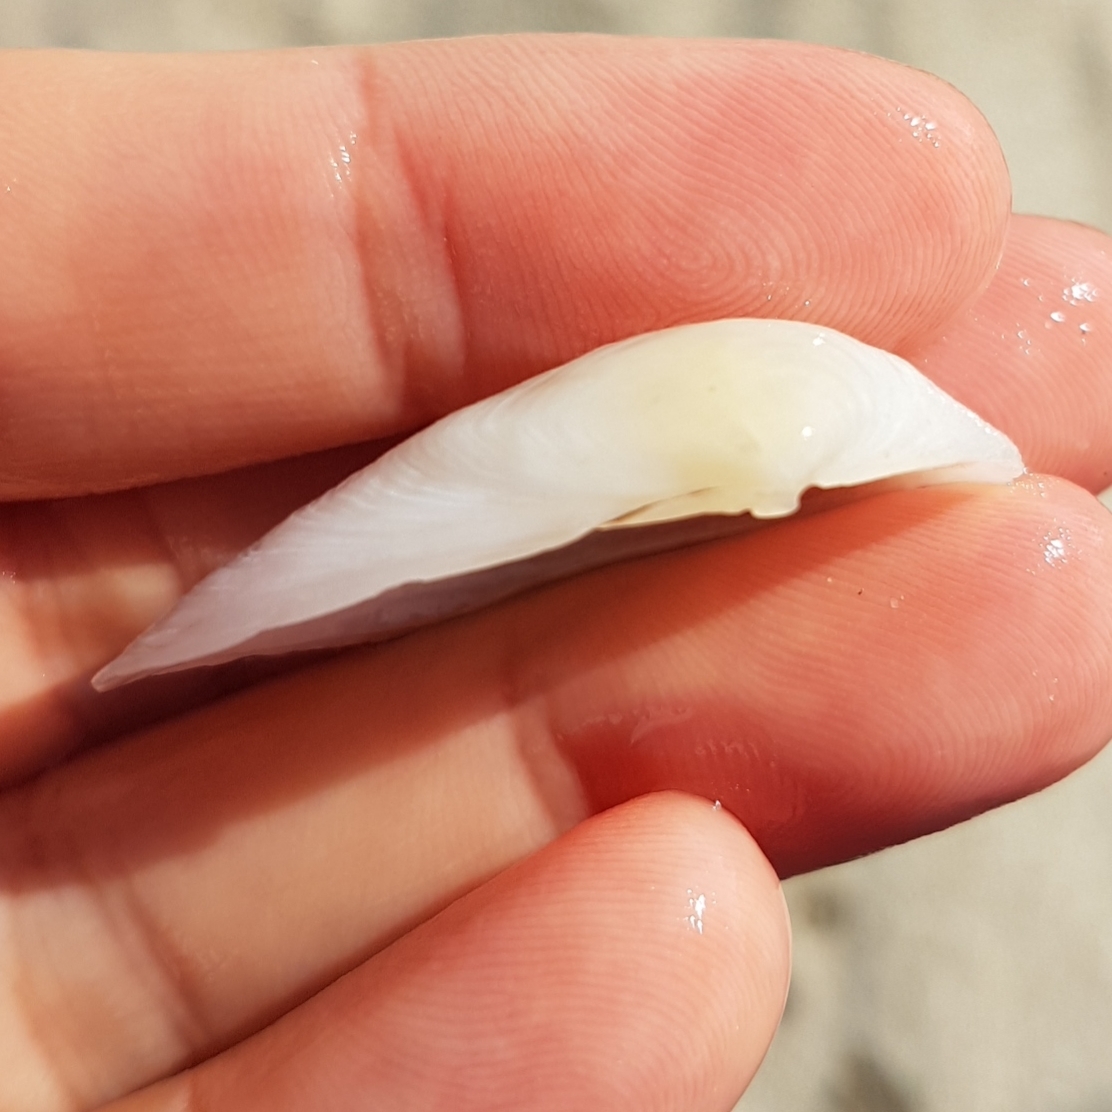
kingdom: Animalia
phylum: Mollusca
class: Bivalvia
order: Cardiida
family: Tellinidae
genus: Gastrana
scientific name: Gastrana fragilis
